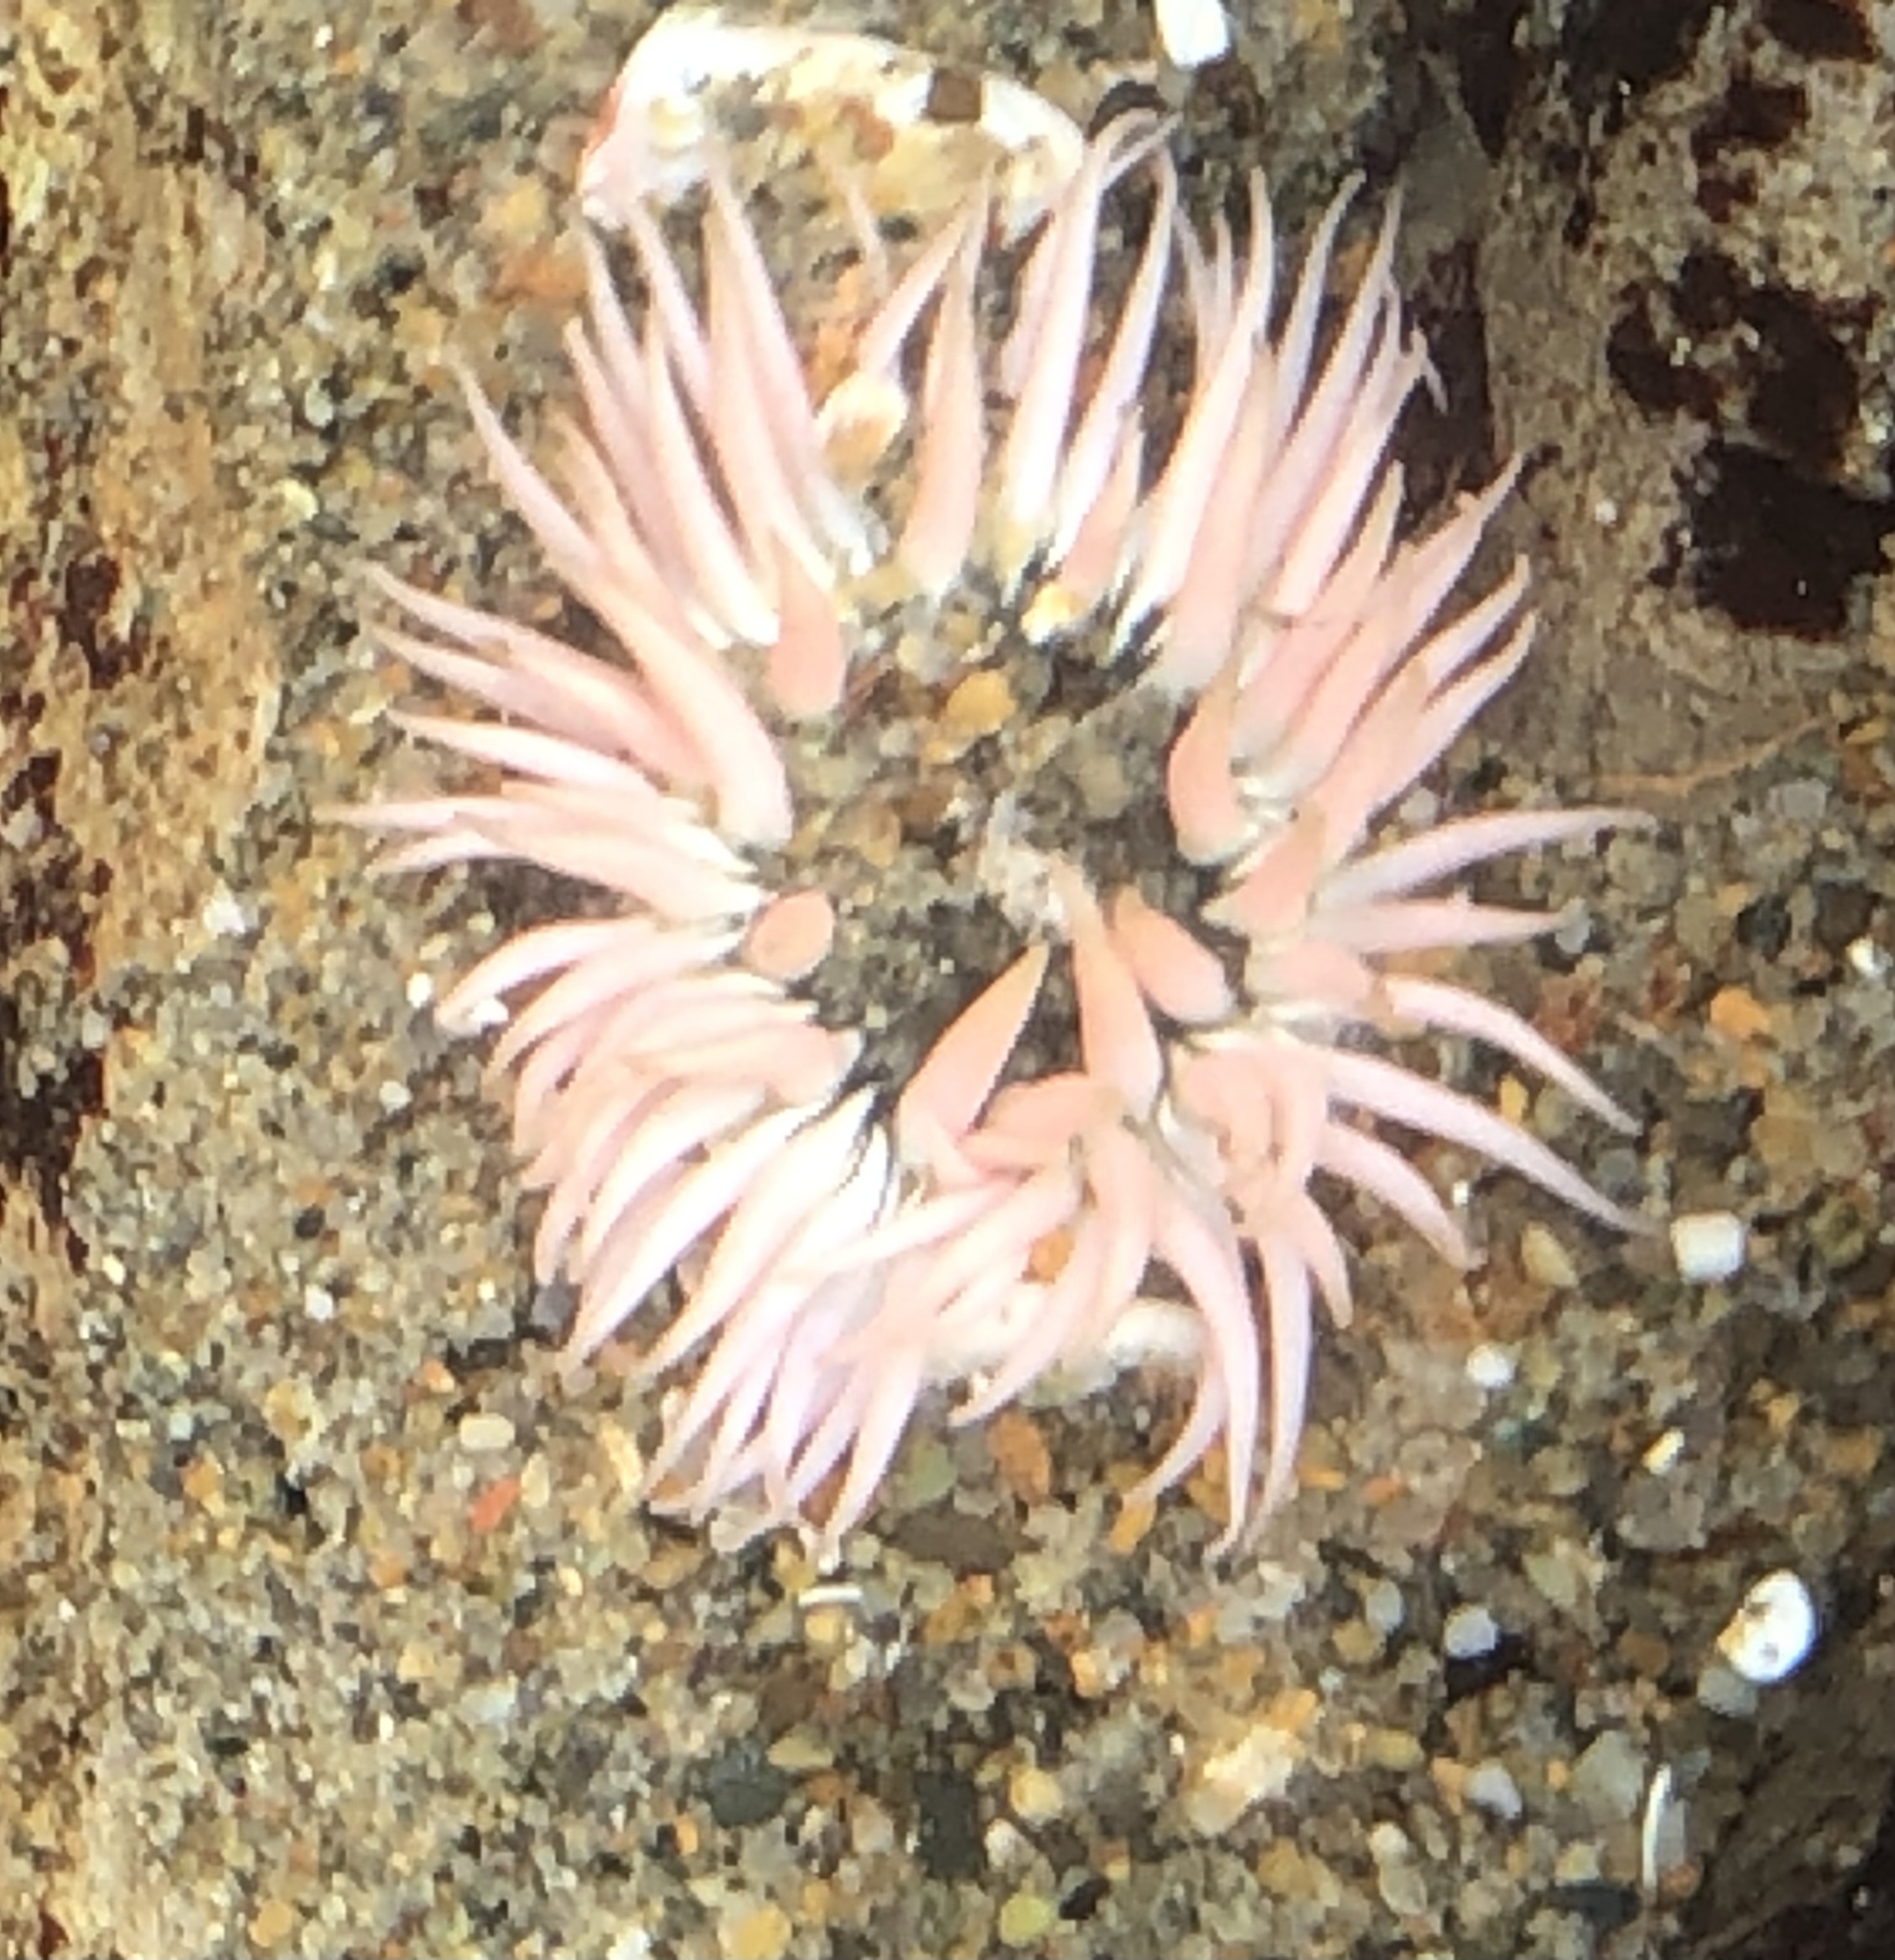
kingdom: Animalia
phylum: Cnidaria
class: Anthozoa
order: Actiniaria
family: Actiniidae
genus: Anthopleura
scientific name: Anthopleura artemisia
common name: Buried sea anemone
